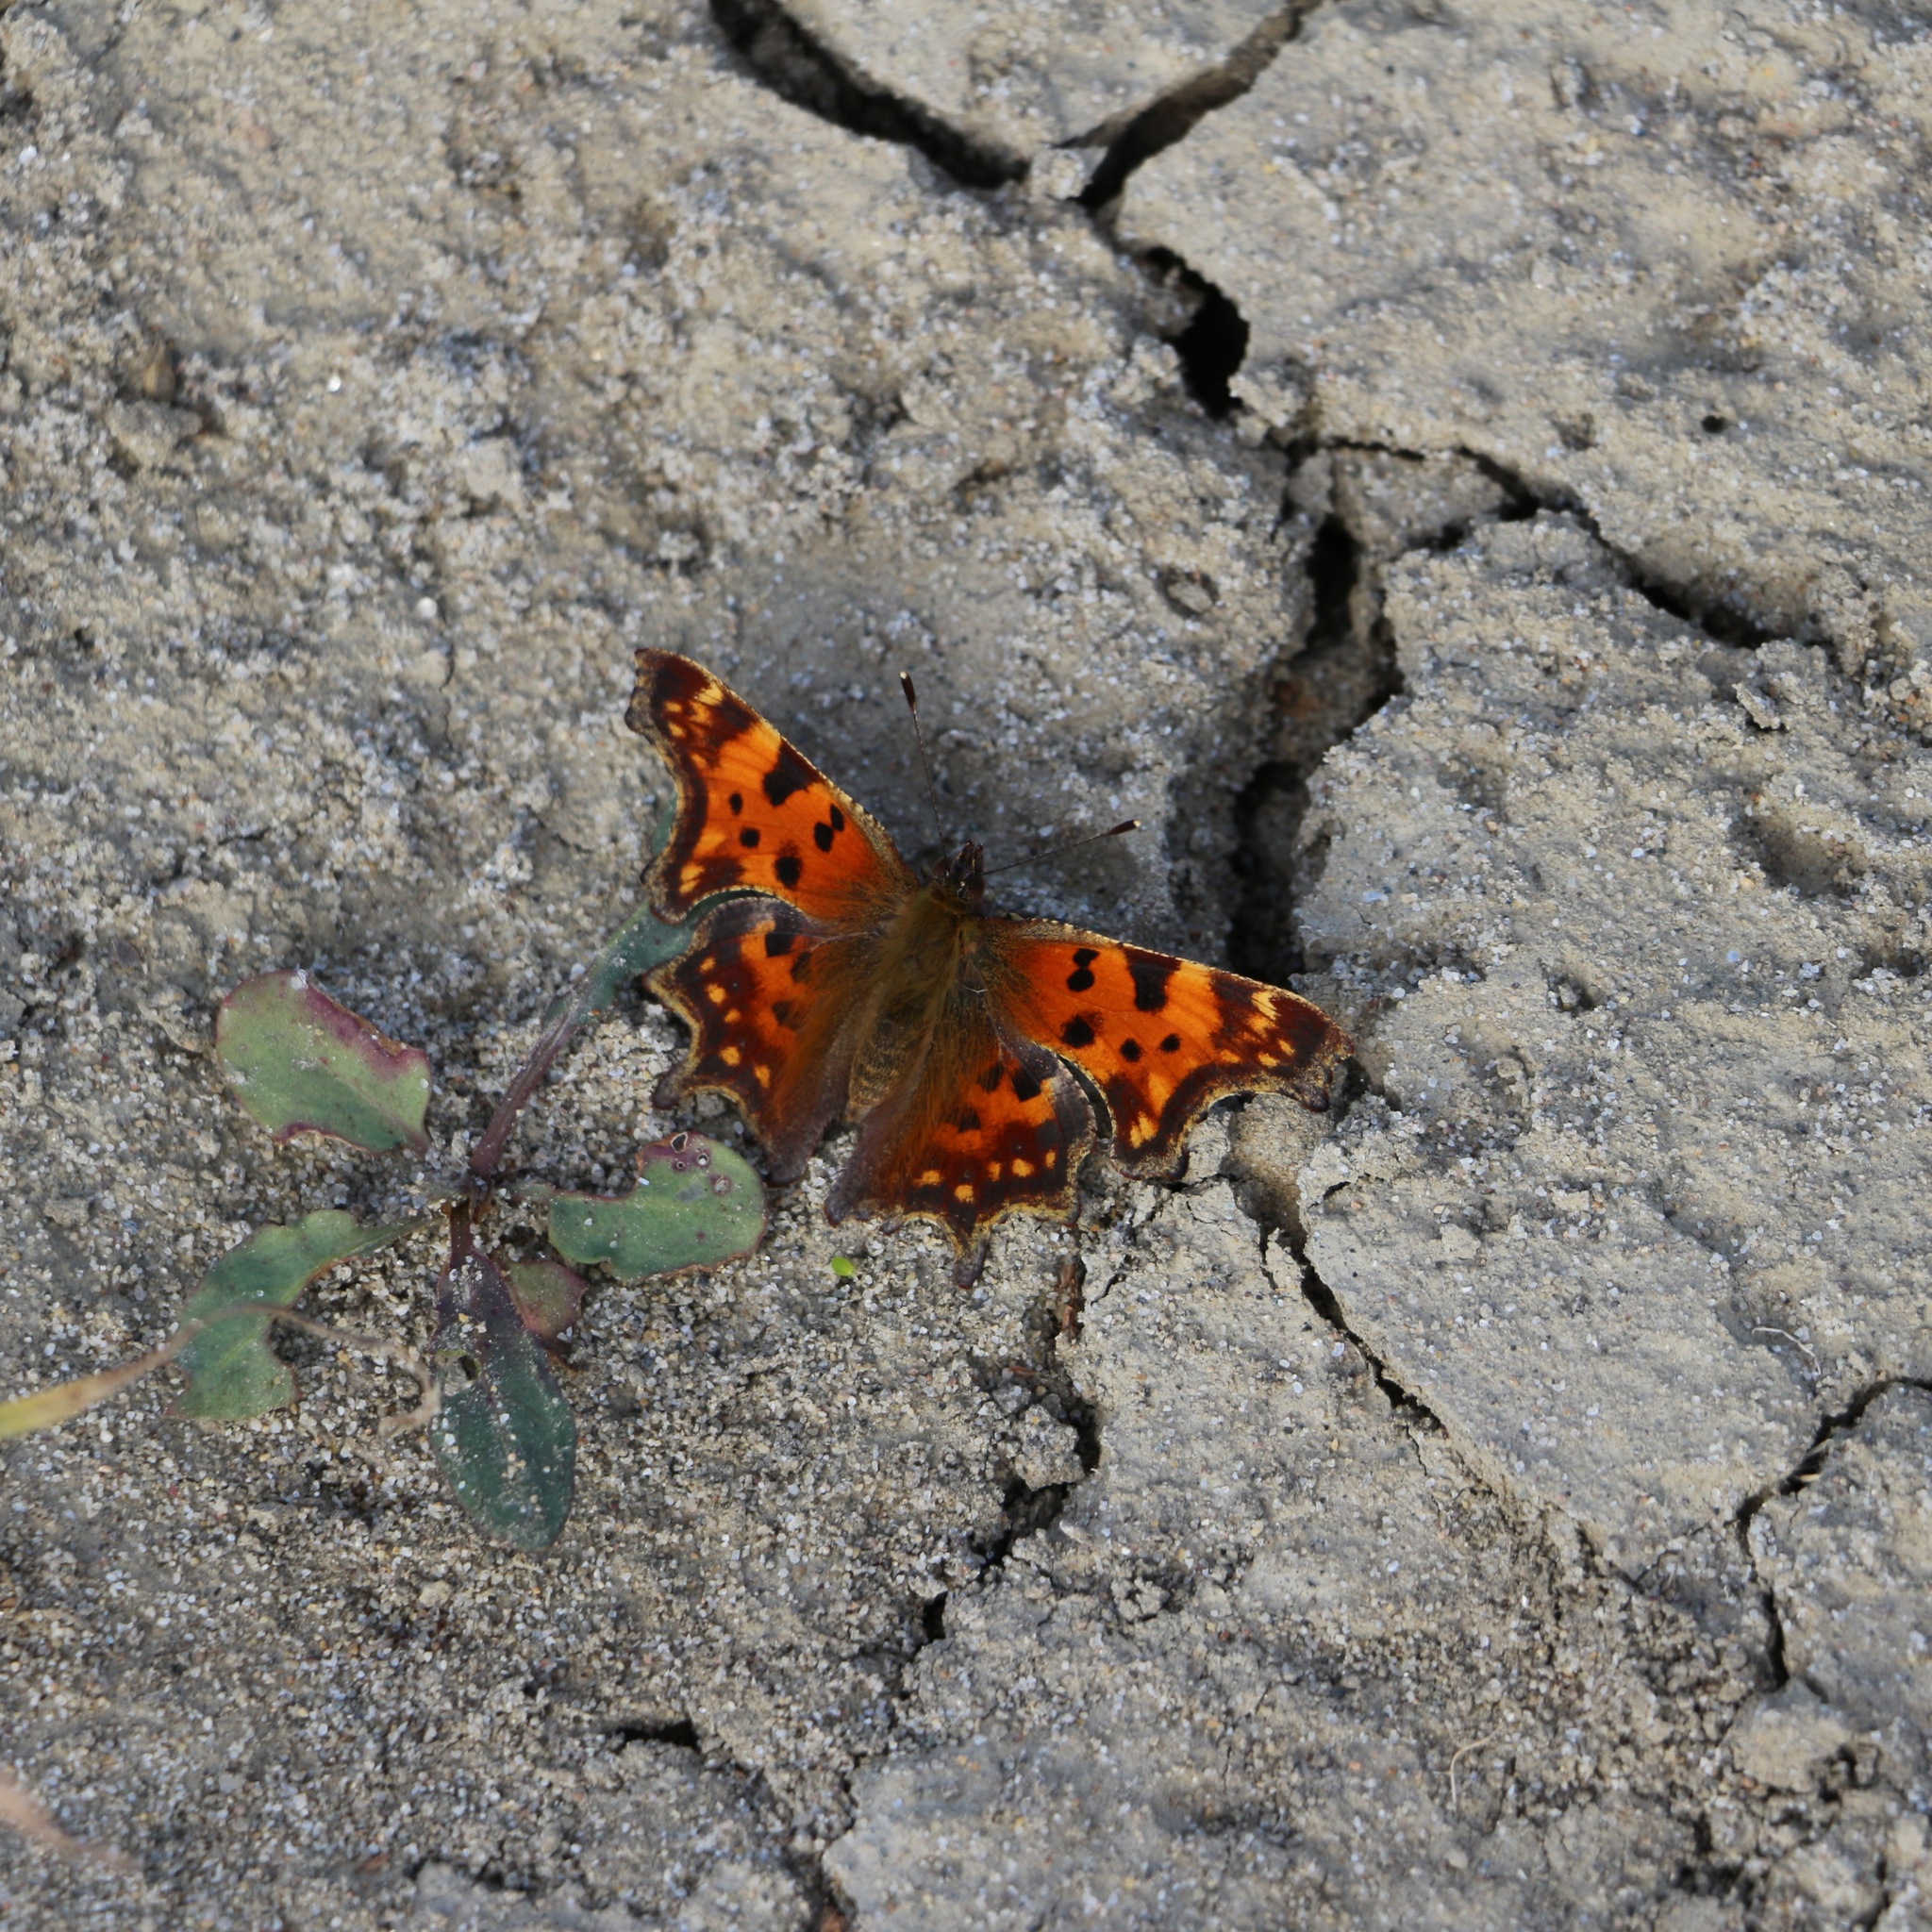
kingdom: Animalia
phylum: Arthropoda
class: Insecta
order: Lepidoptera
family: Nymphalidae
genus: Polygonia
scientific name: Polygonia c-album
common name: Comma
